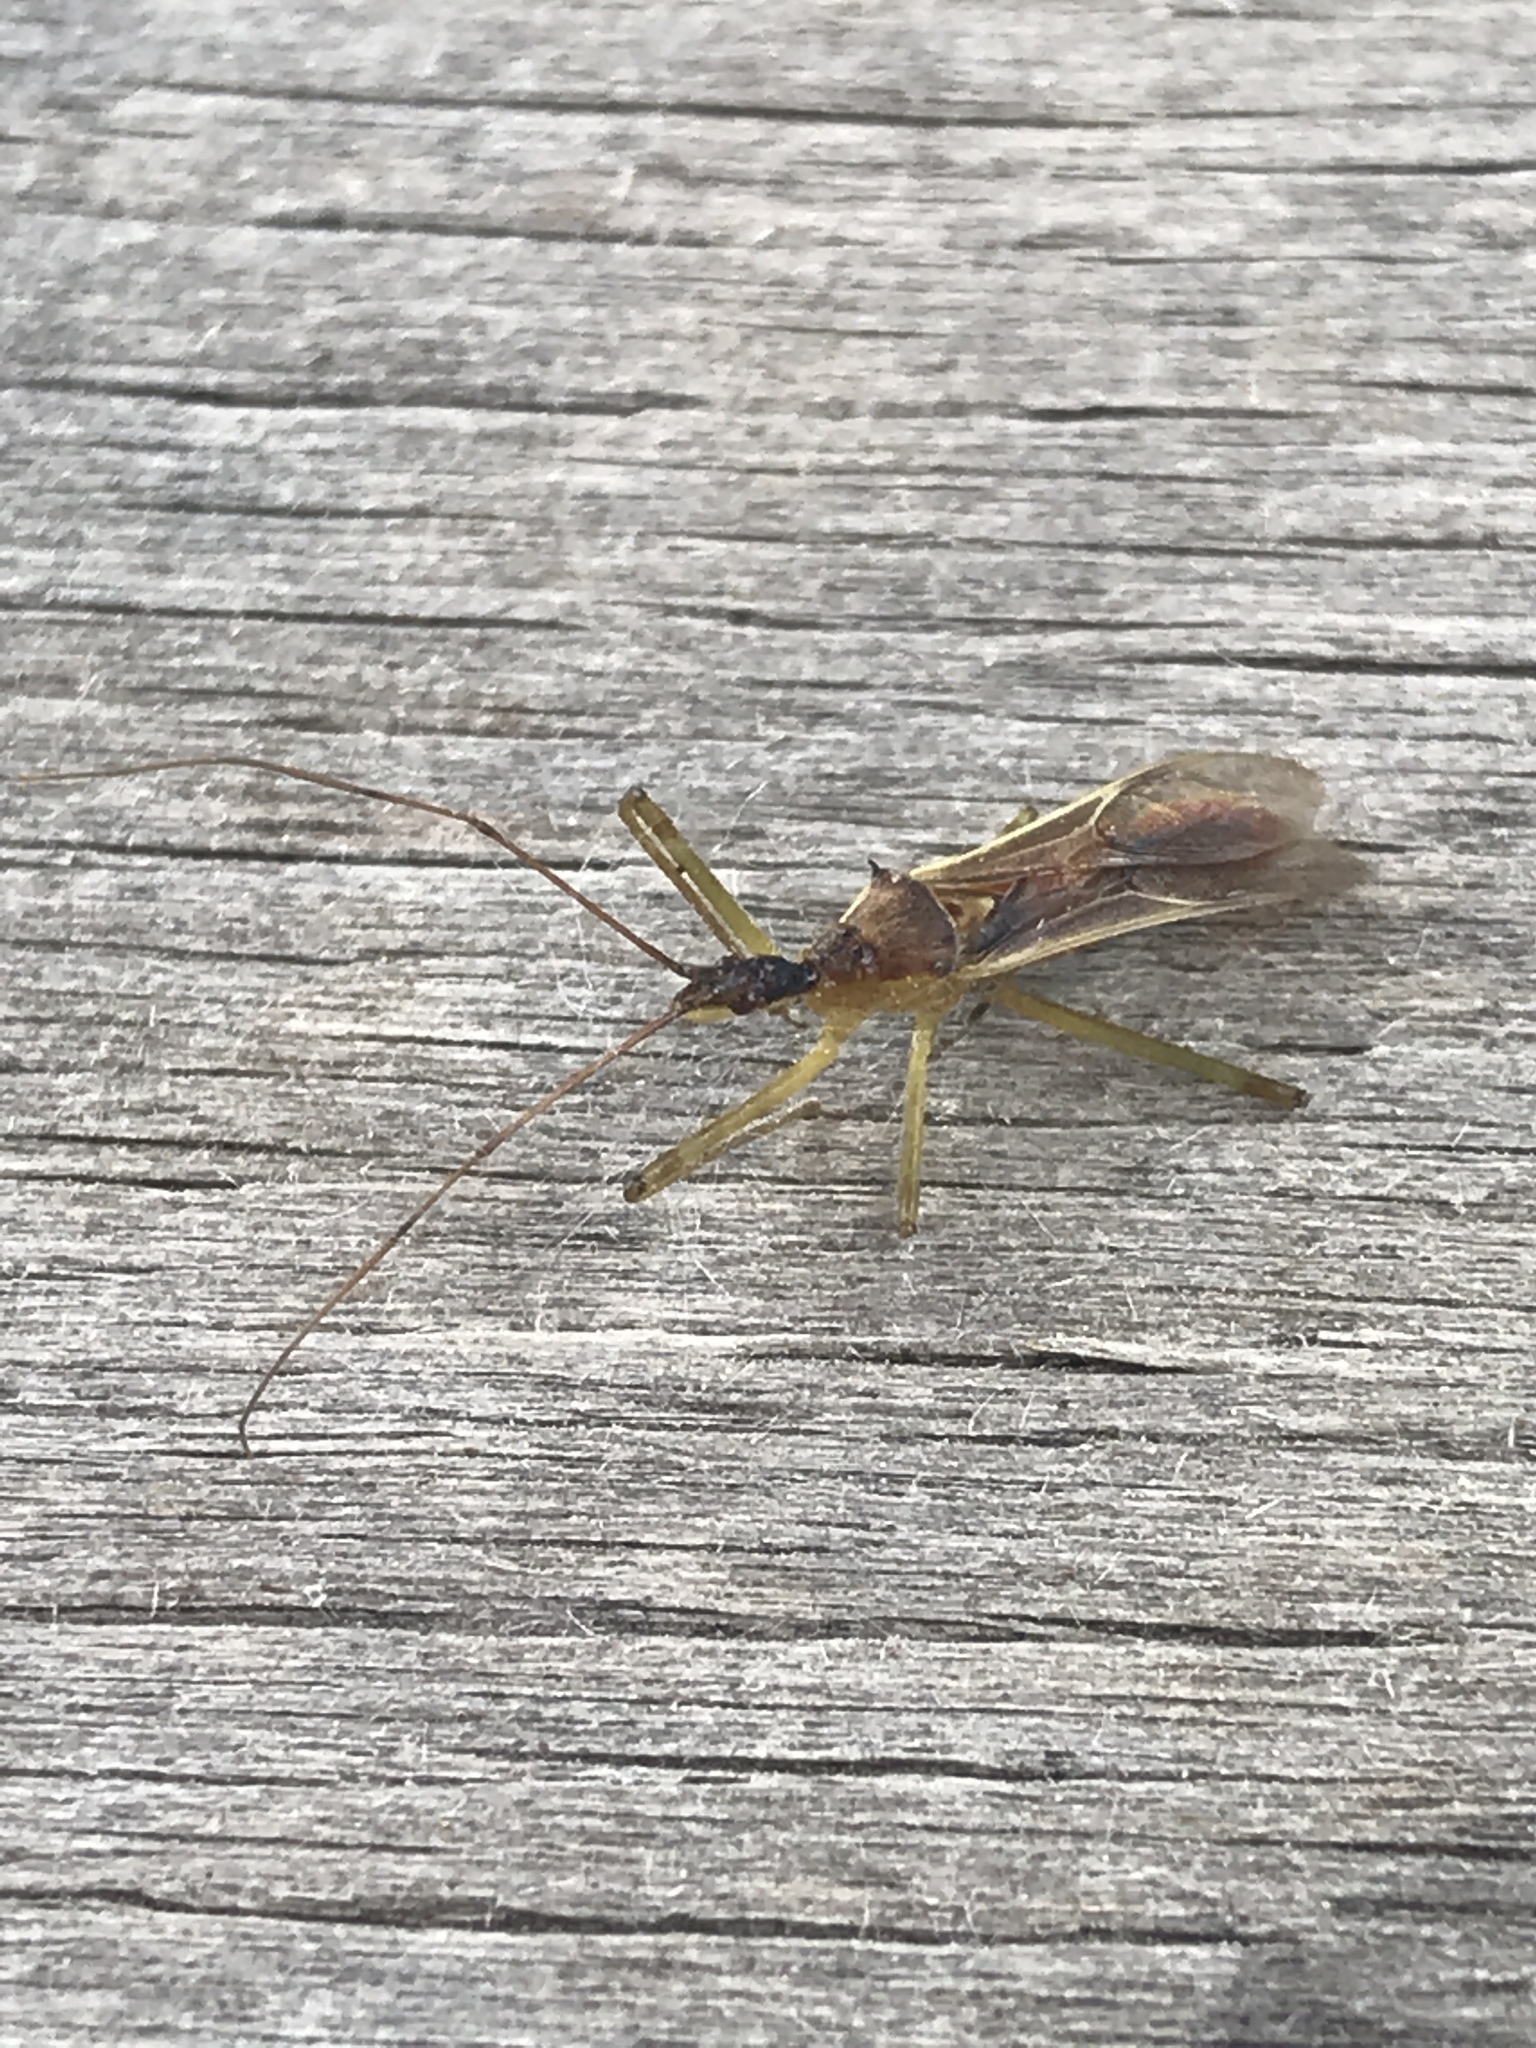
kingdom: Animalia
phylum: Arthropoda
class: Insecta
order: Hemiptera
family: Reduviidae
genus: Zelus
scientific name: Zelus luridus
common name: Pale green assassin bug
